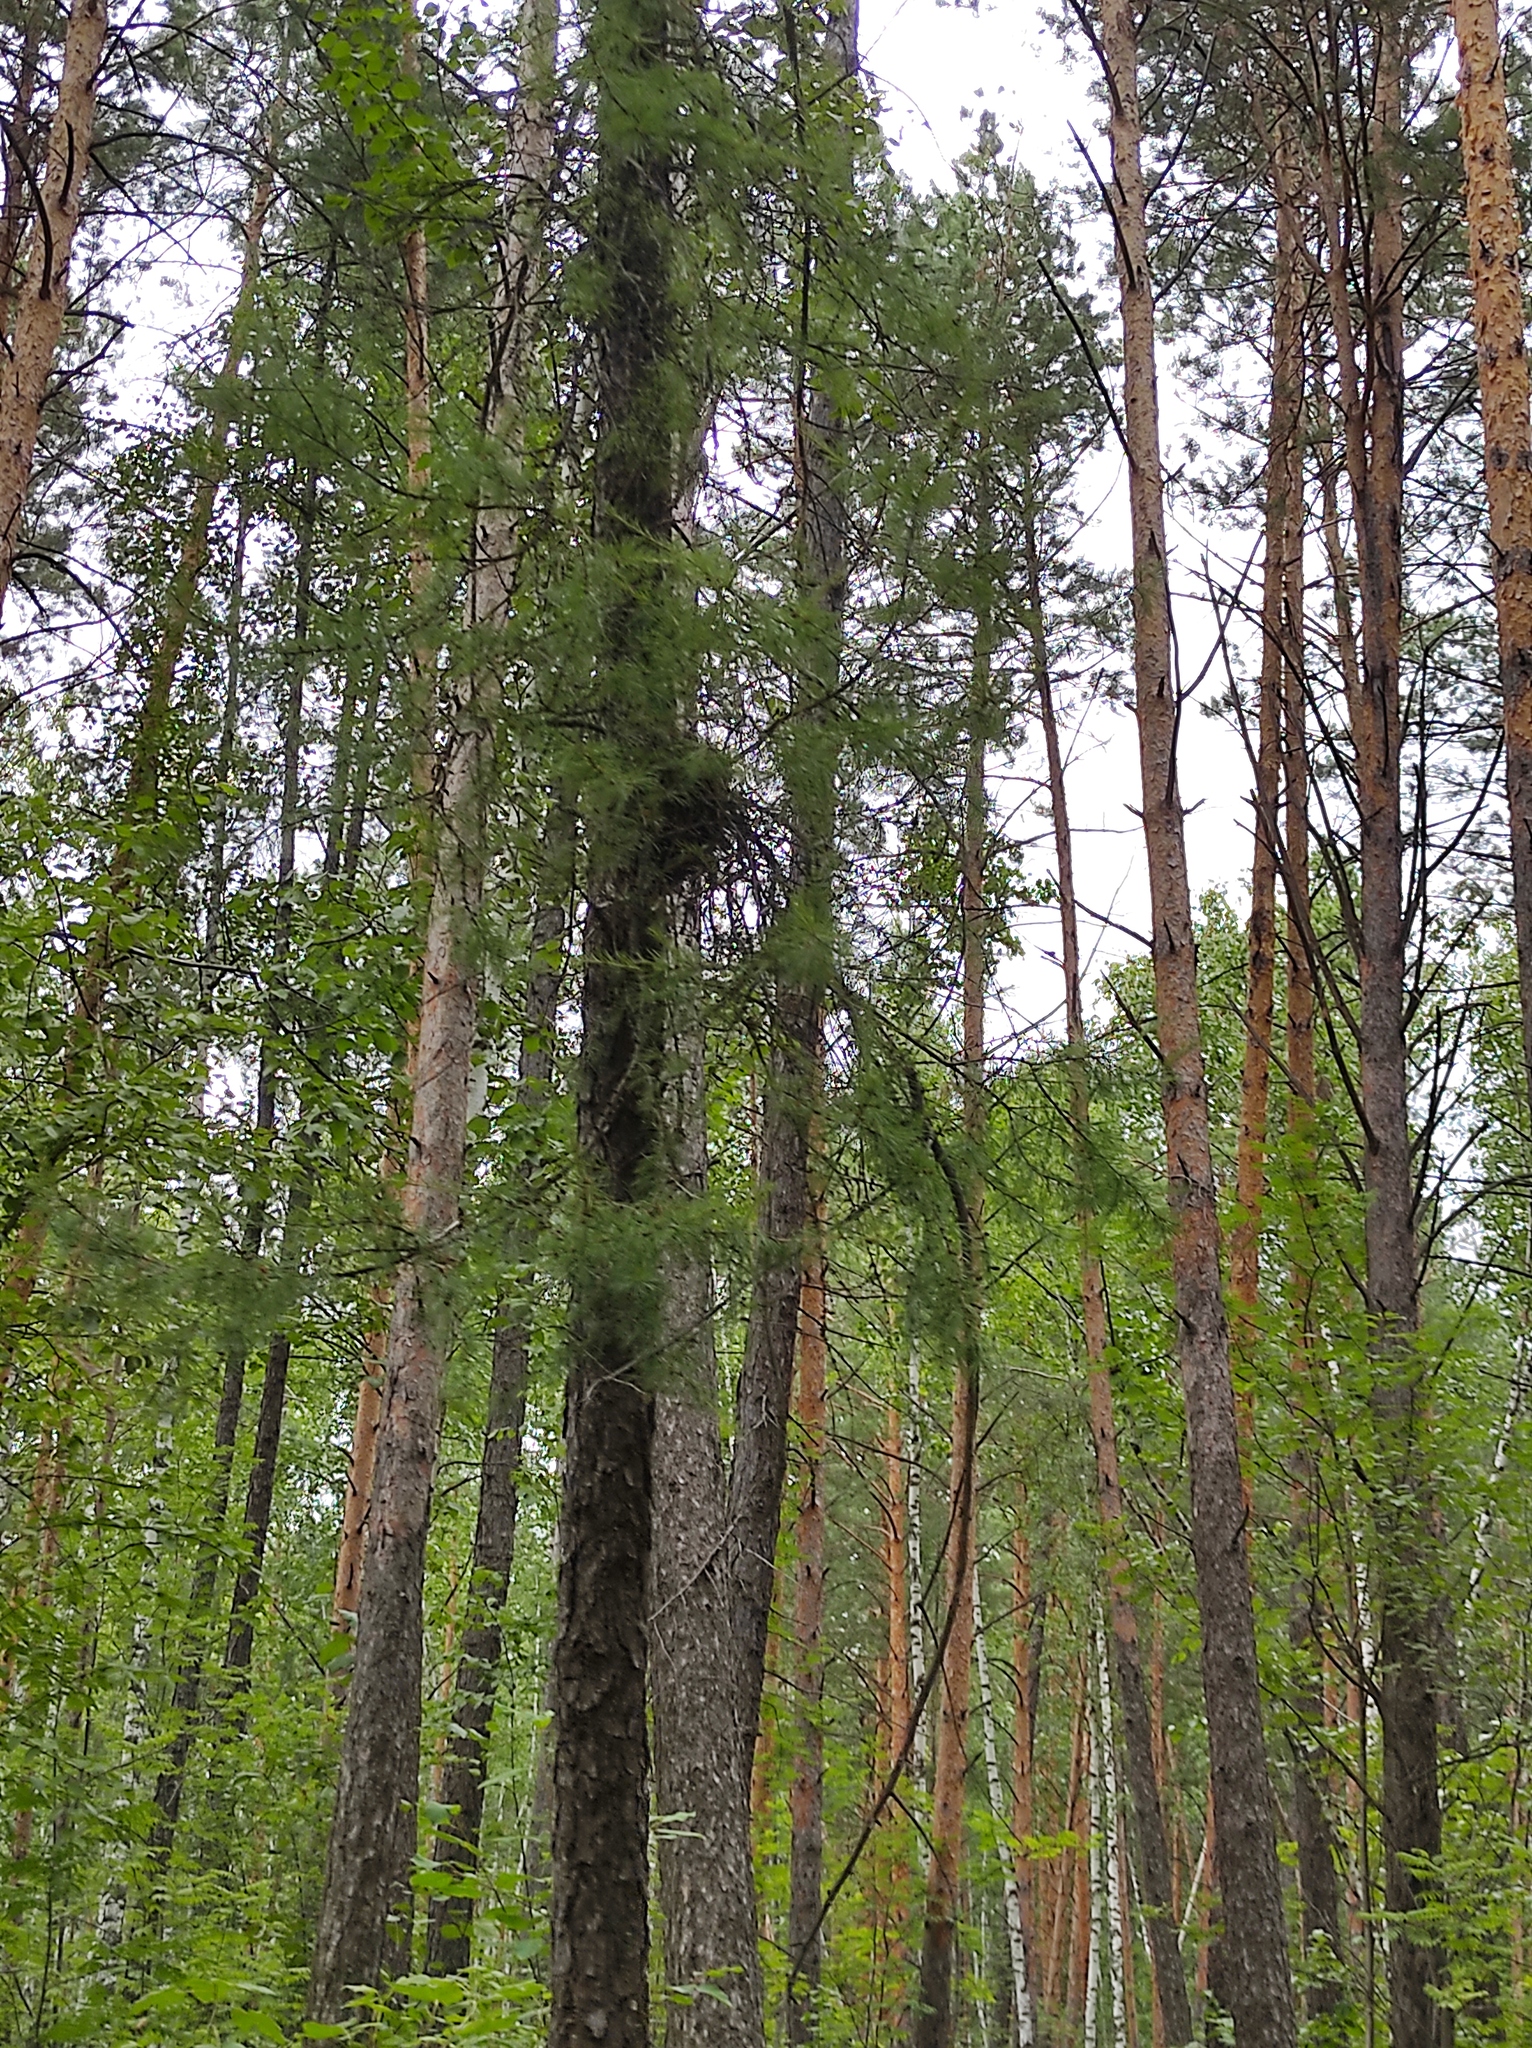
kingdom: Plantae
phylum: Tracheophyta
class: Pinopsida
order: Pinales
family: Pinaceae
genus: Larix
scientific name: Larix sibirica
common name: Siberian larch
